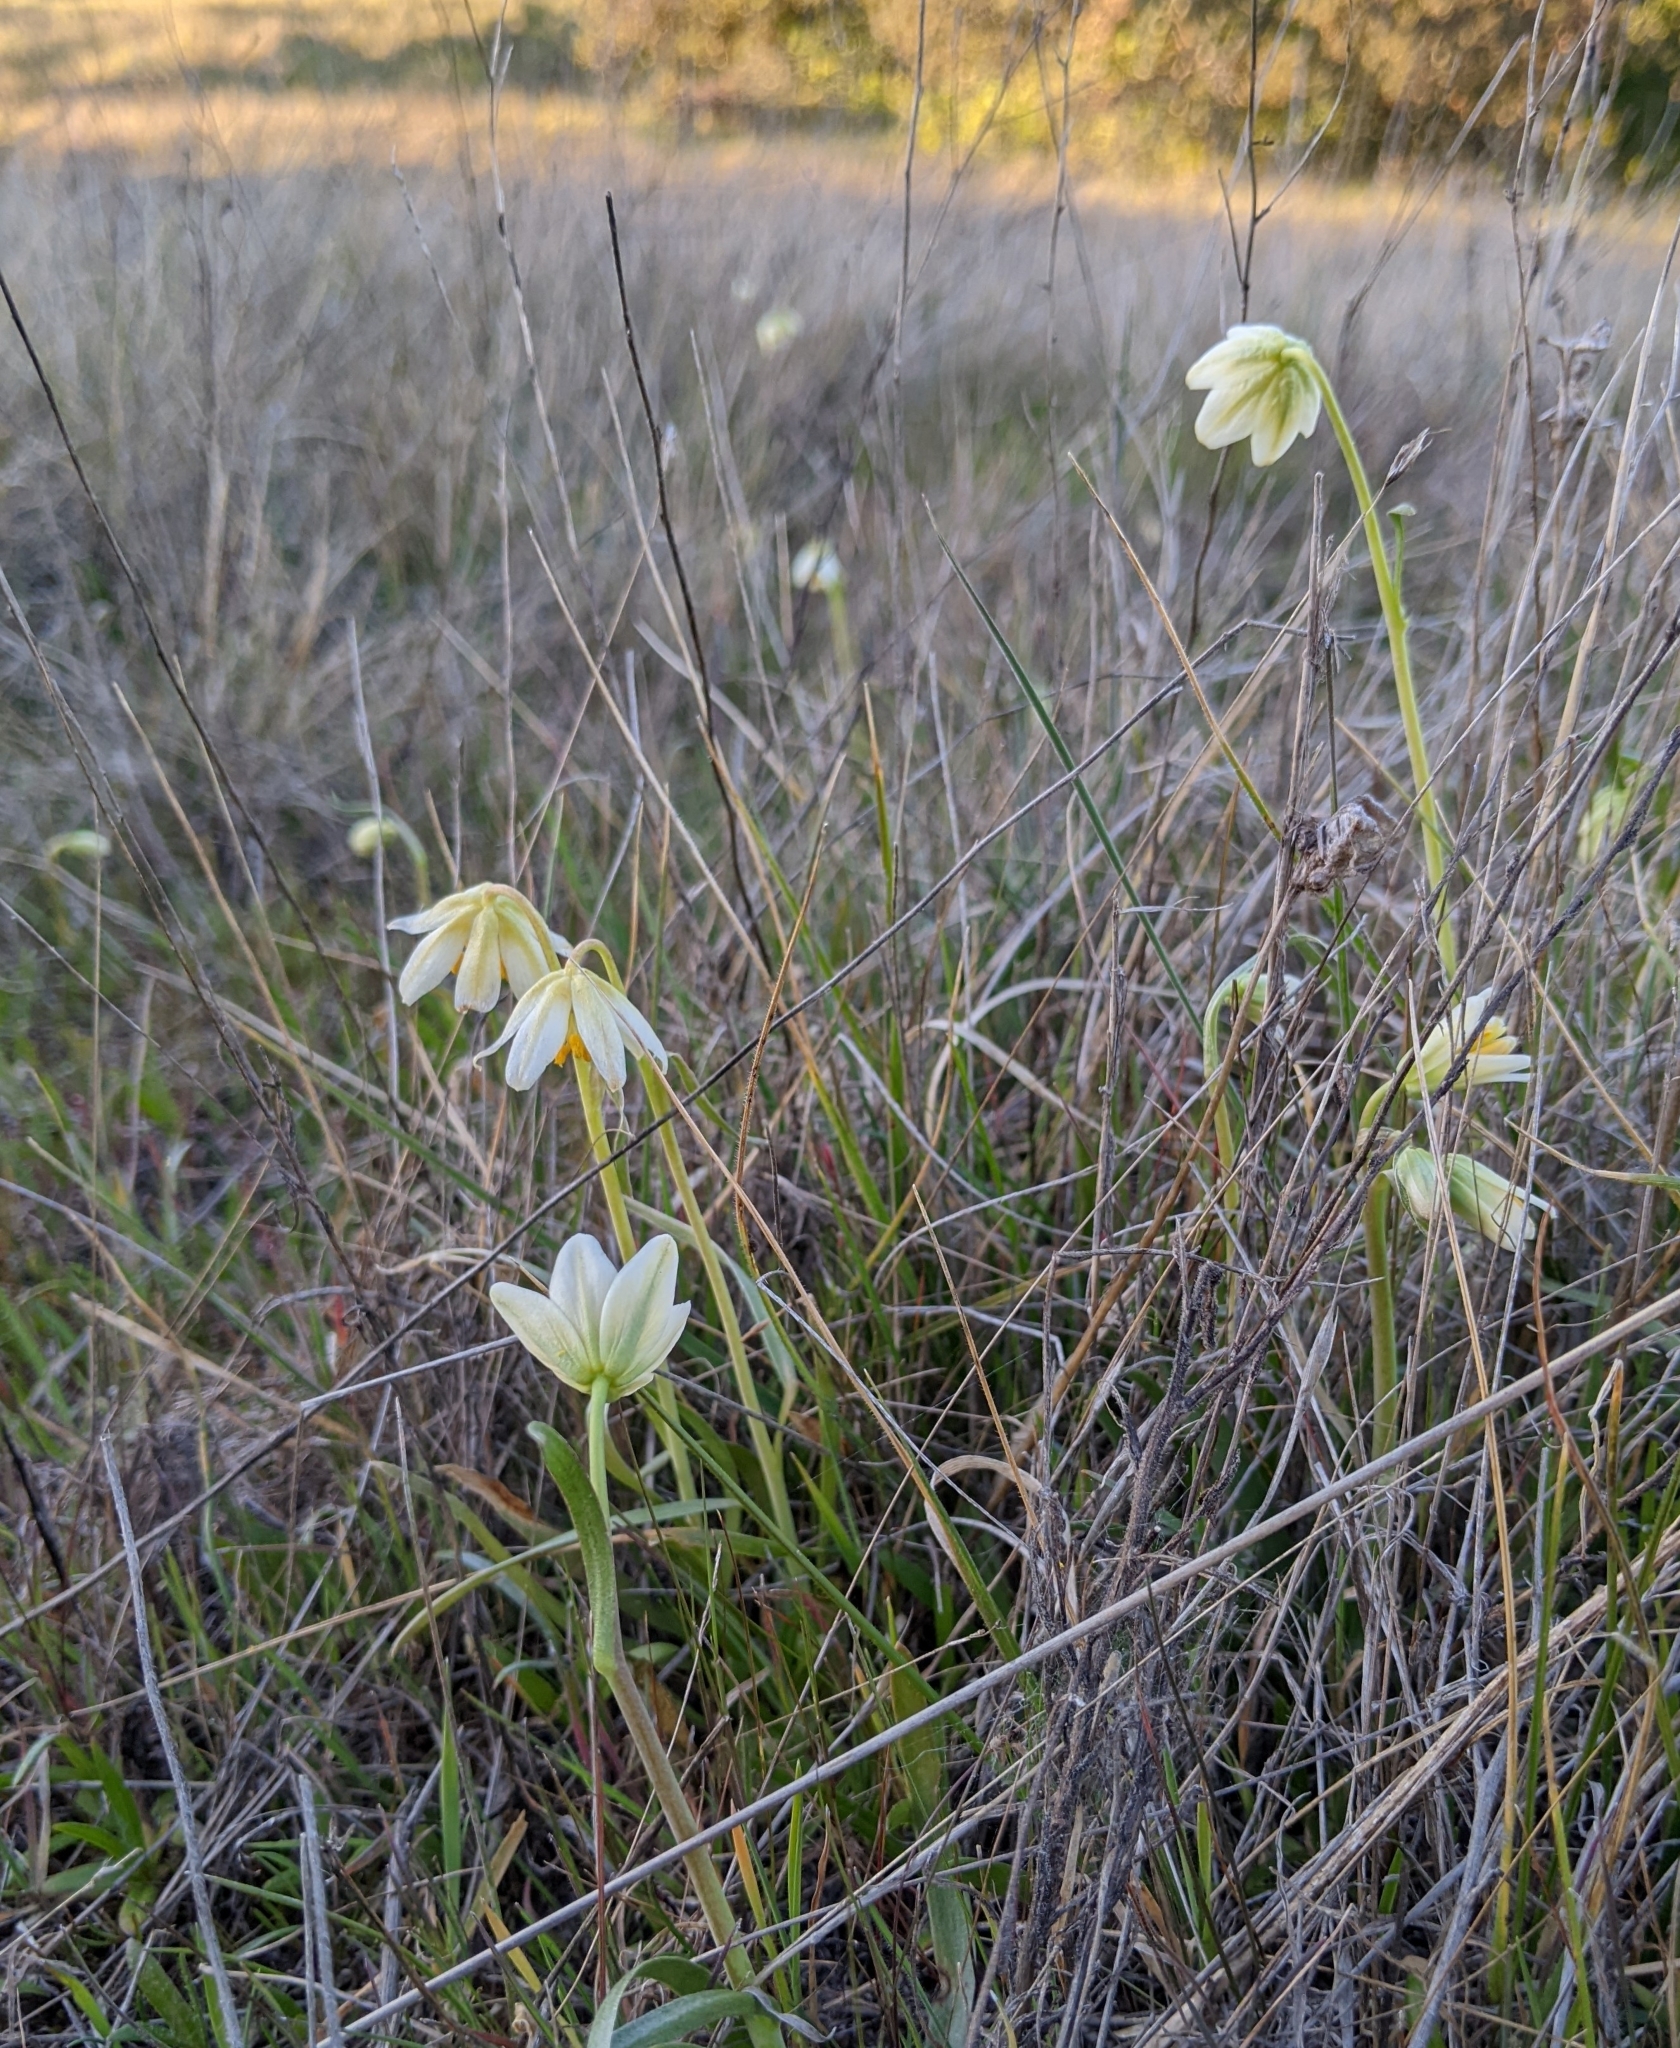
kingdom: Plantae
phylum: Tracheophyta
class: Liliopsida
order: Liliales
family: Liliaceae
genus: Fritillaria
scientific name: Fritillaria liliacea
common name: Fragrant fritillary
